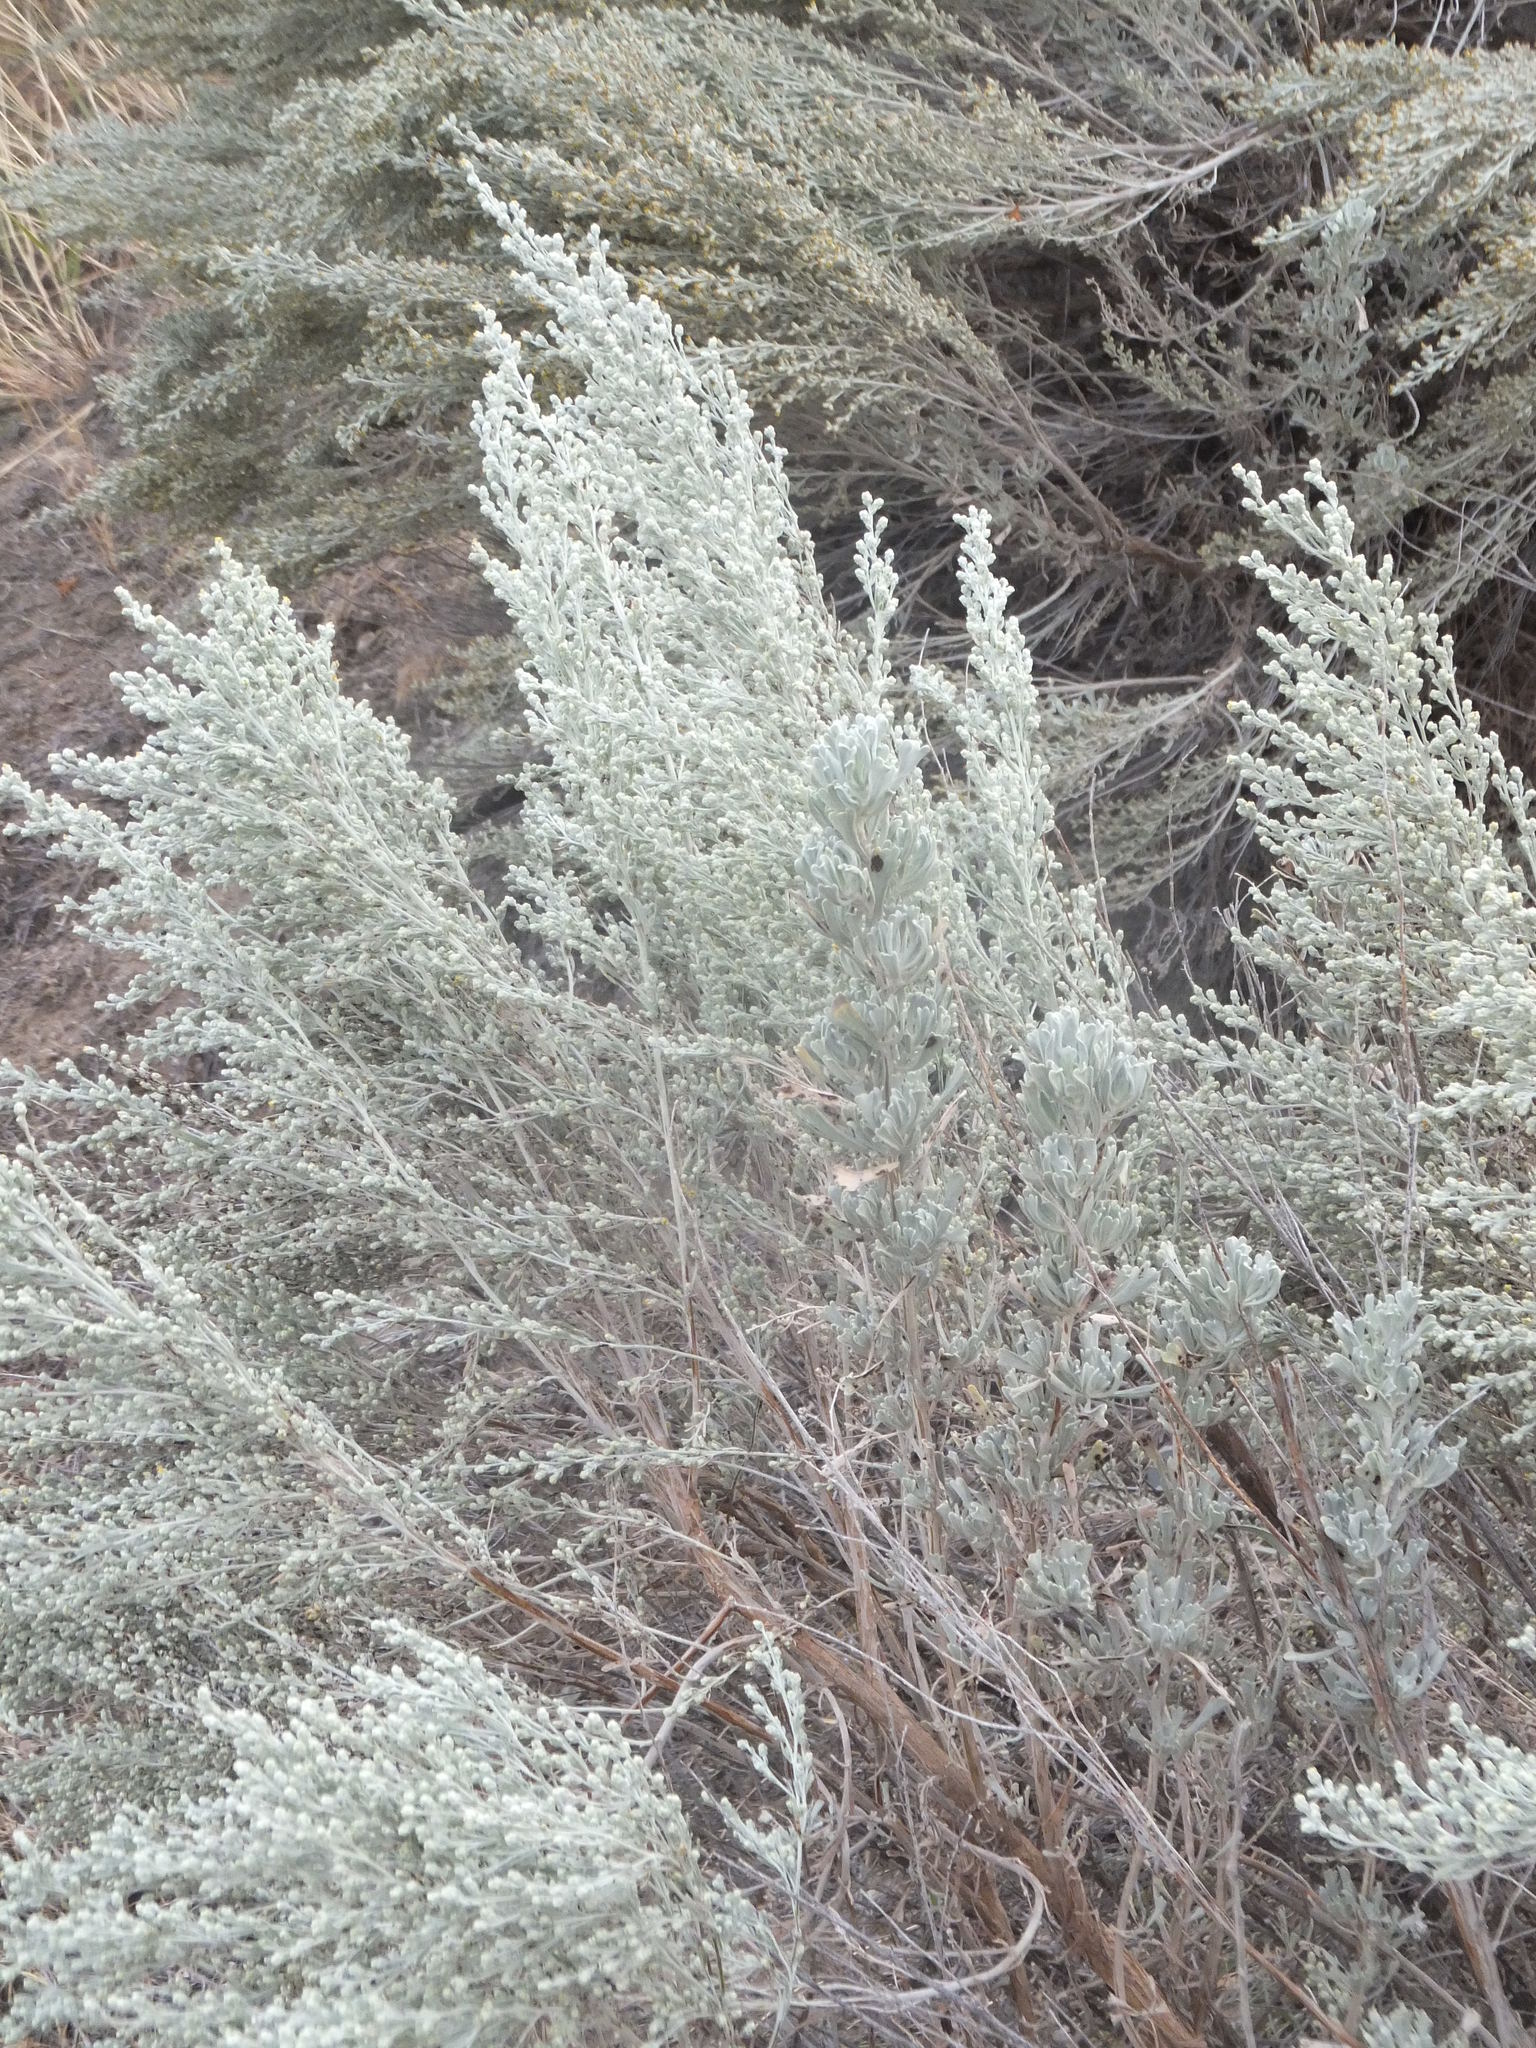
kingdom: Plantae
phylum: Tracheophyta
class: Magnoliopsida
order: Asterales
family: Asteraceae
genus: Artemisia
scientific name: Artemisia tridentata
